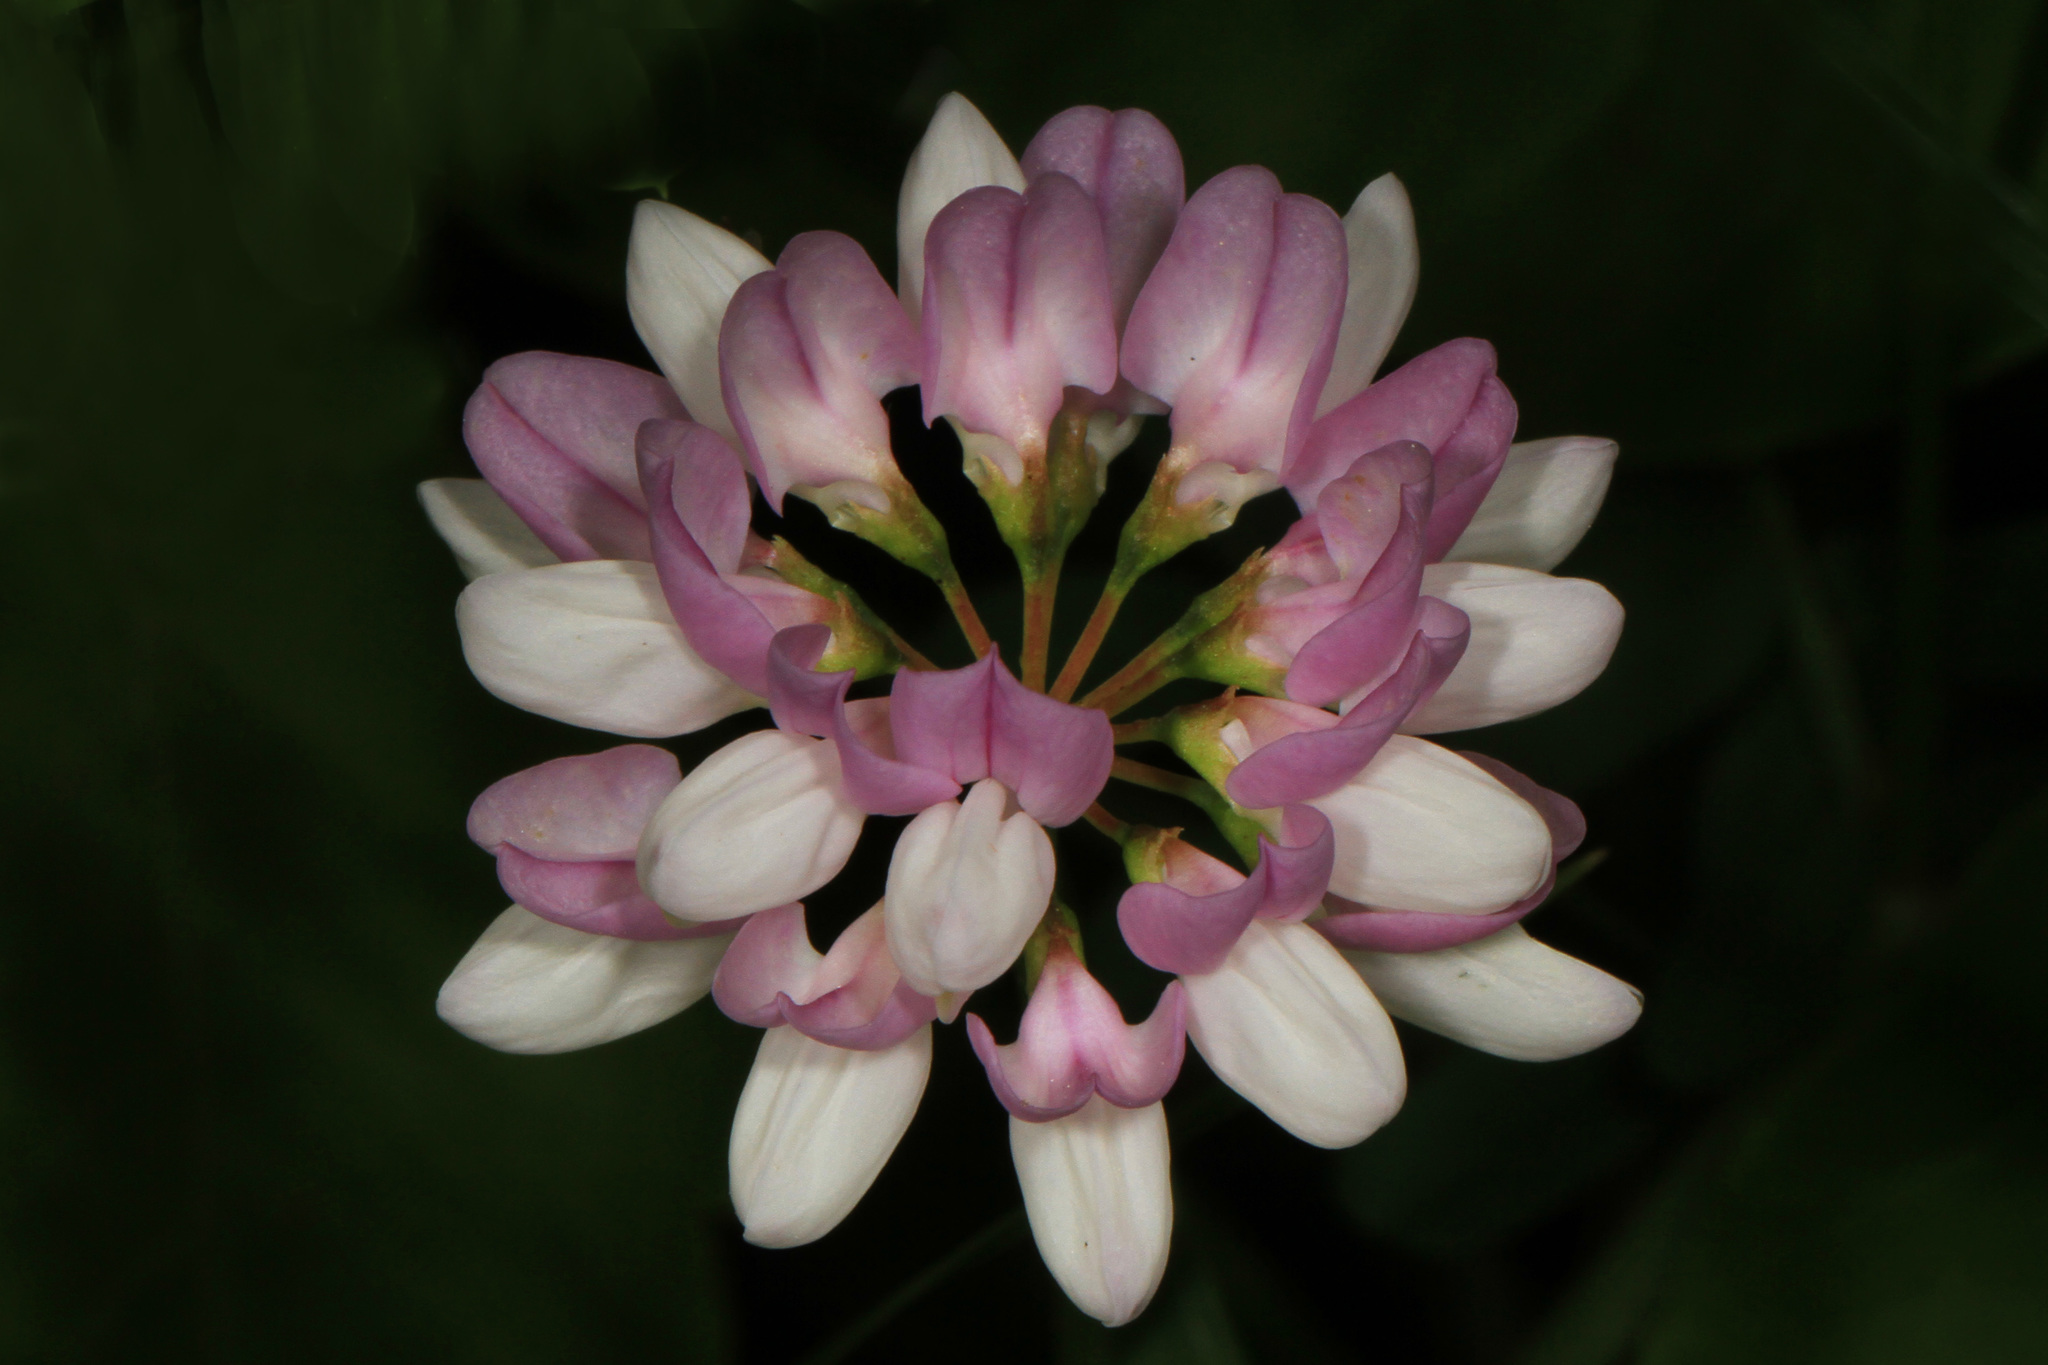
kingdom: Plantae
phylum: Tracheophyta
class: Magnoliopsida
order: Fabales
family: Fabaceae
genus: Coronilla
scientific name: Coronilla varia
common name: Crownvetch
